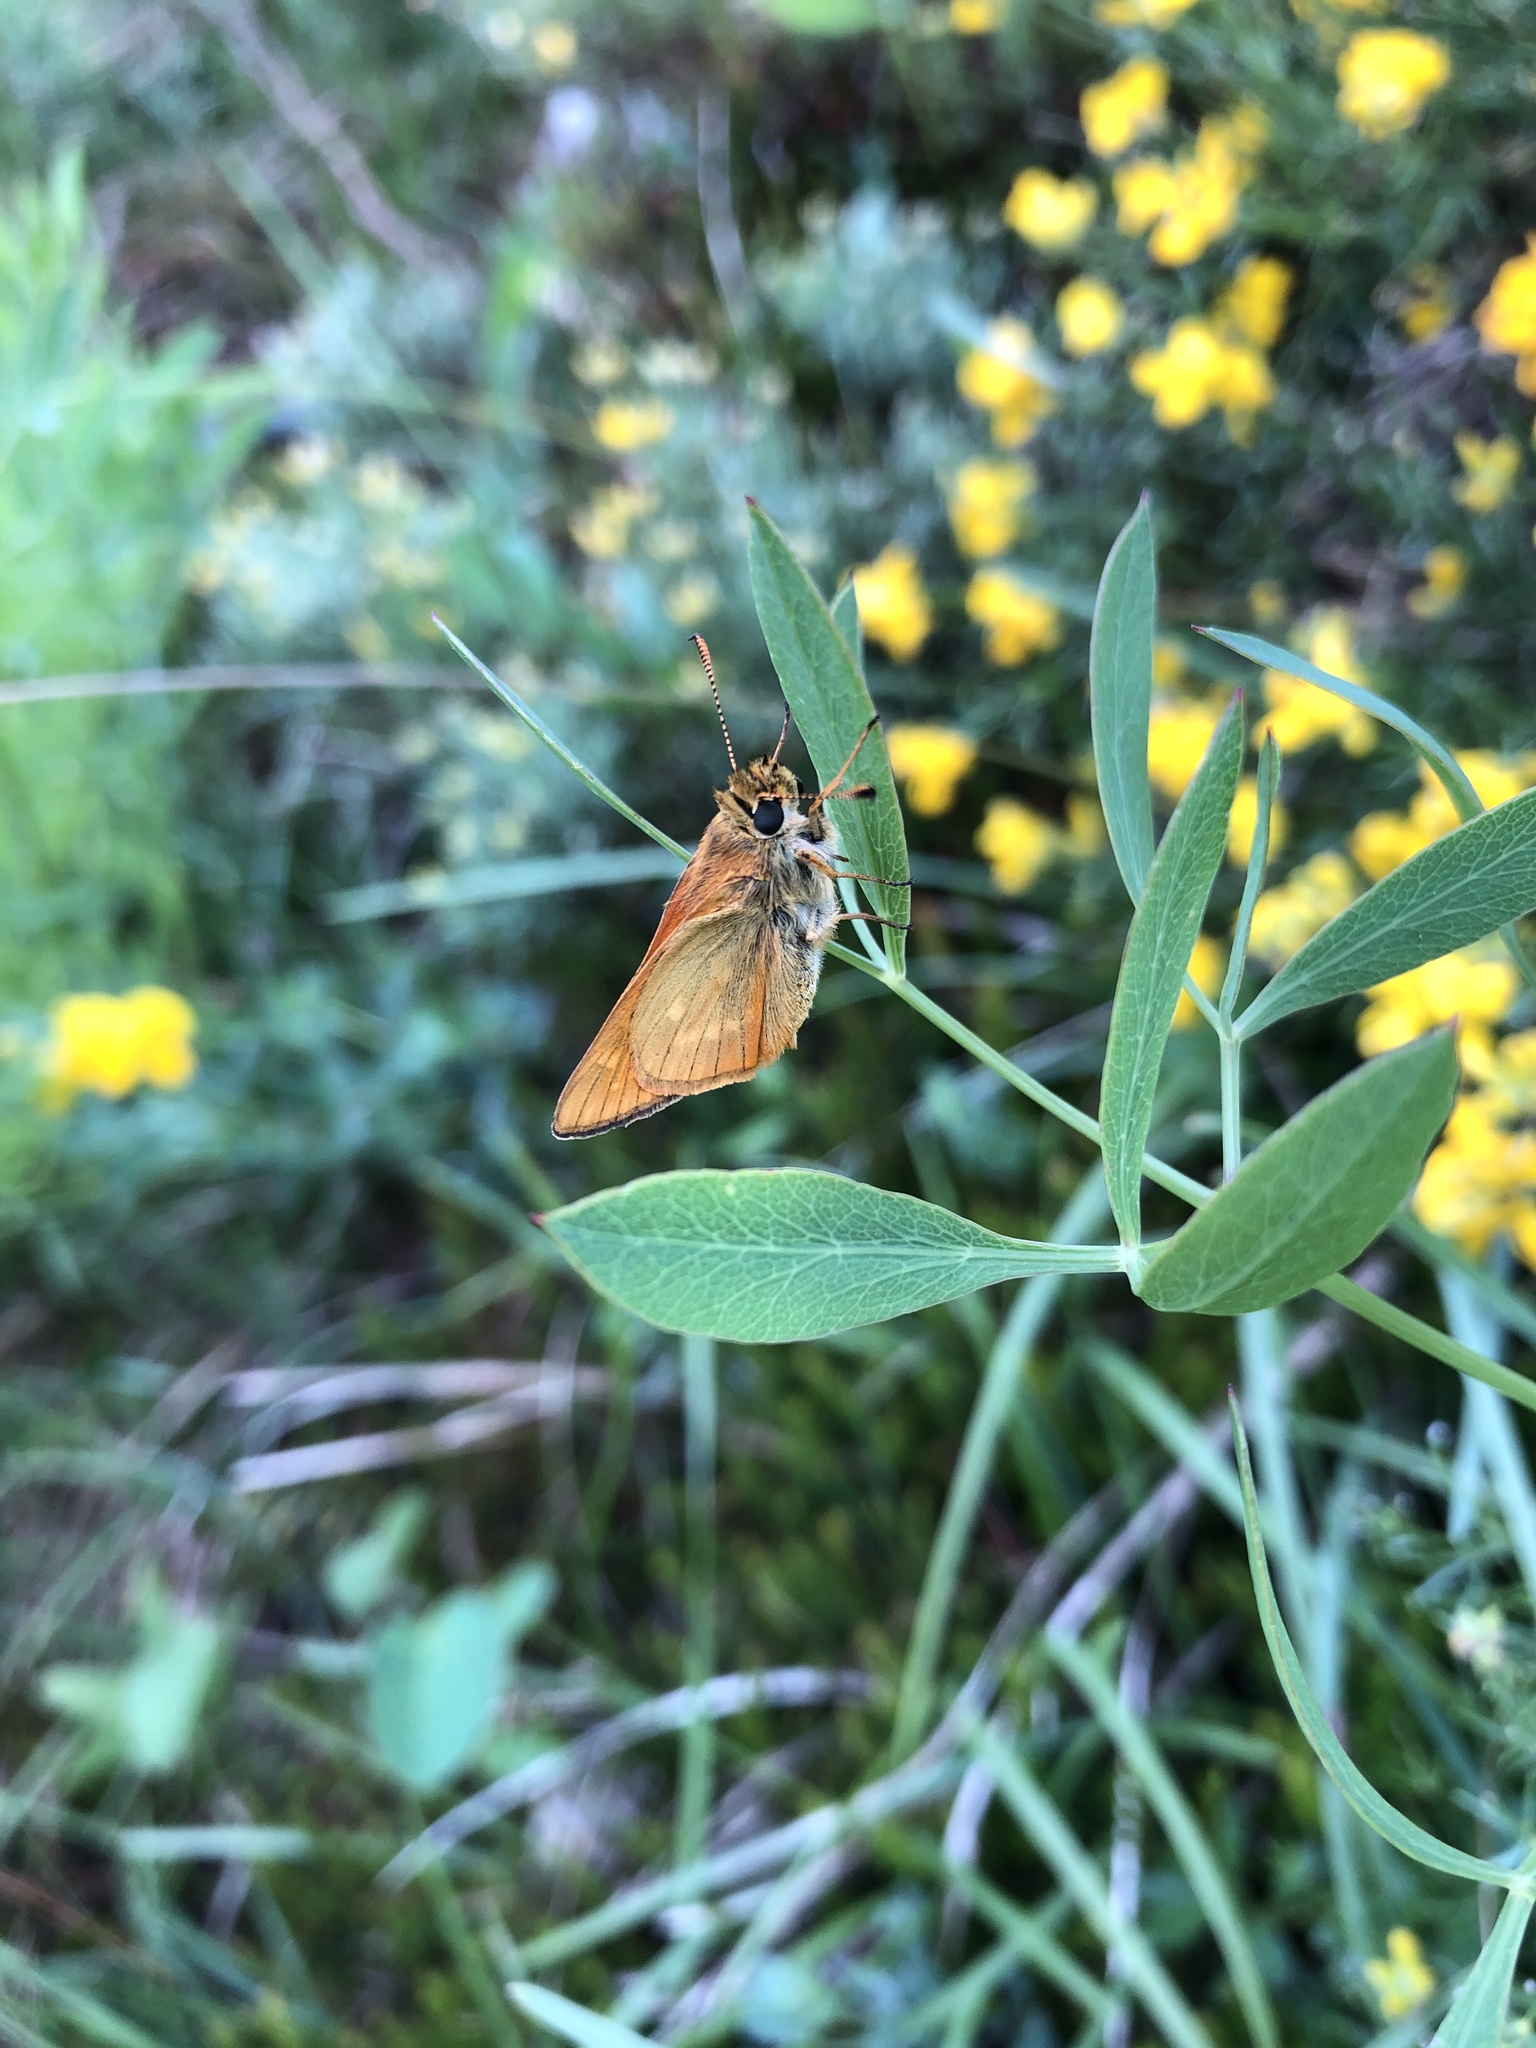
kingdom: Animalia
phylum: Arthropoda
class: Insecta
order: Lepidoptera
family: Hesperiidae
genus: Ochlodes
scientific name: Ochlodes venata
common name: Large skipper
